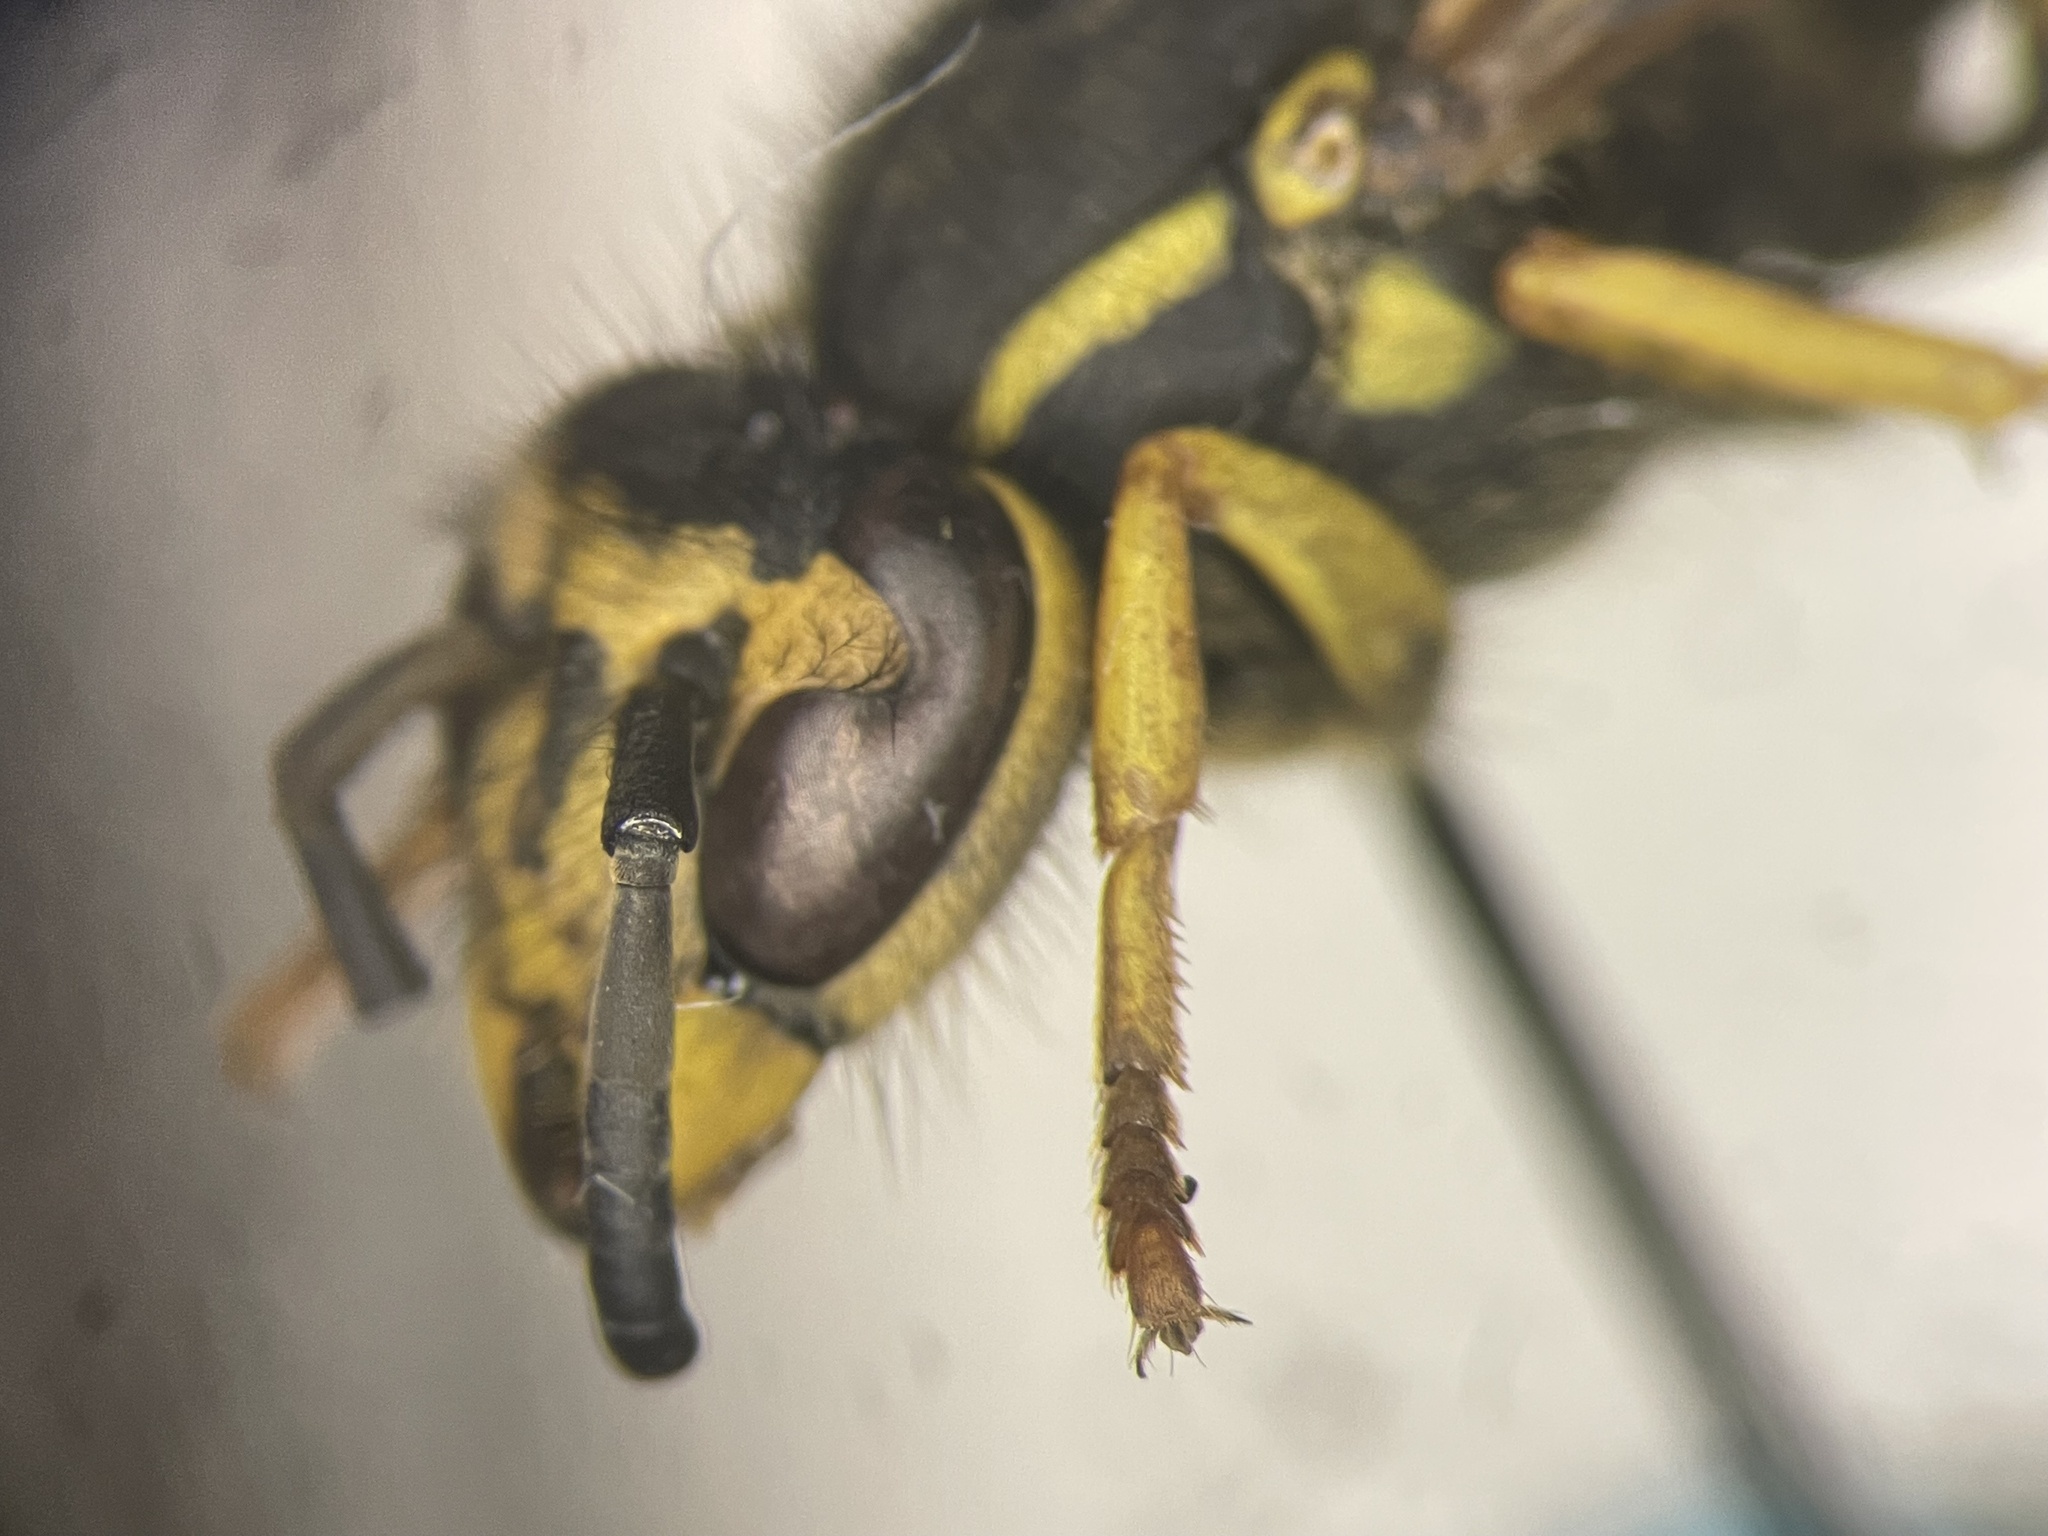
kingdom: Animalia
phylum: Arthropoda
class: Insecta
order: Hymenoptera
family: Vespidae
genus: Vespula
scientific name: Vespula maculifrons
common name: Eastern yellowjacket
